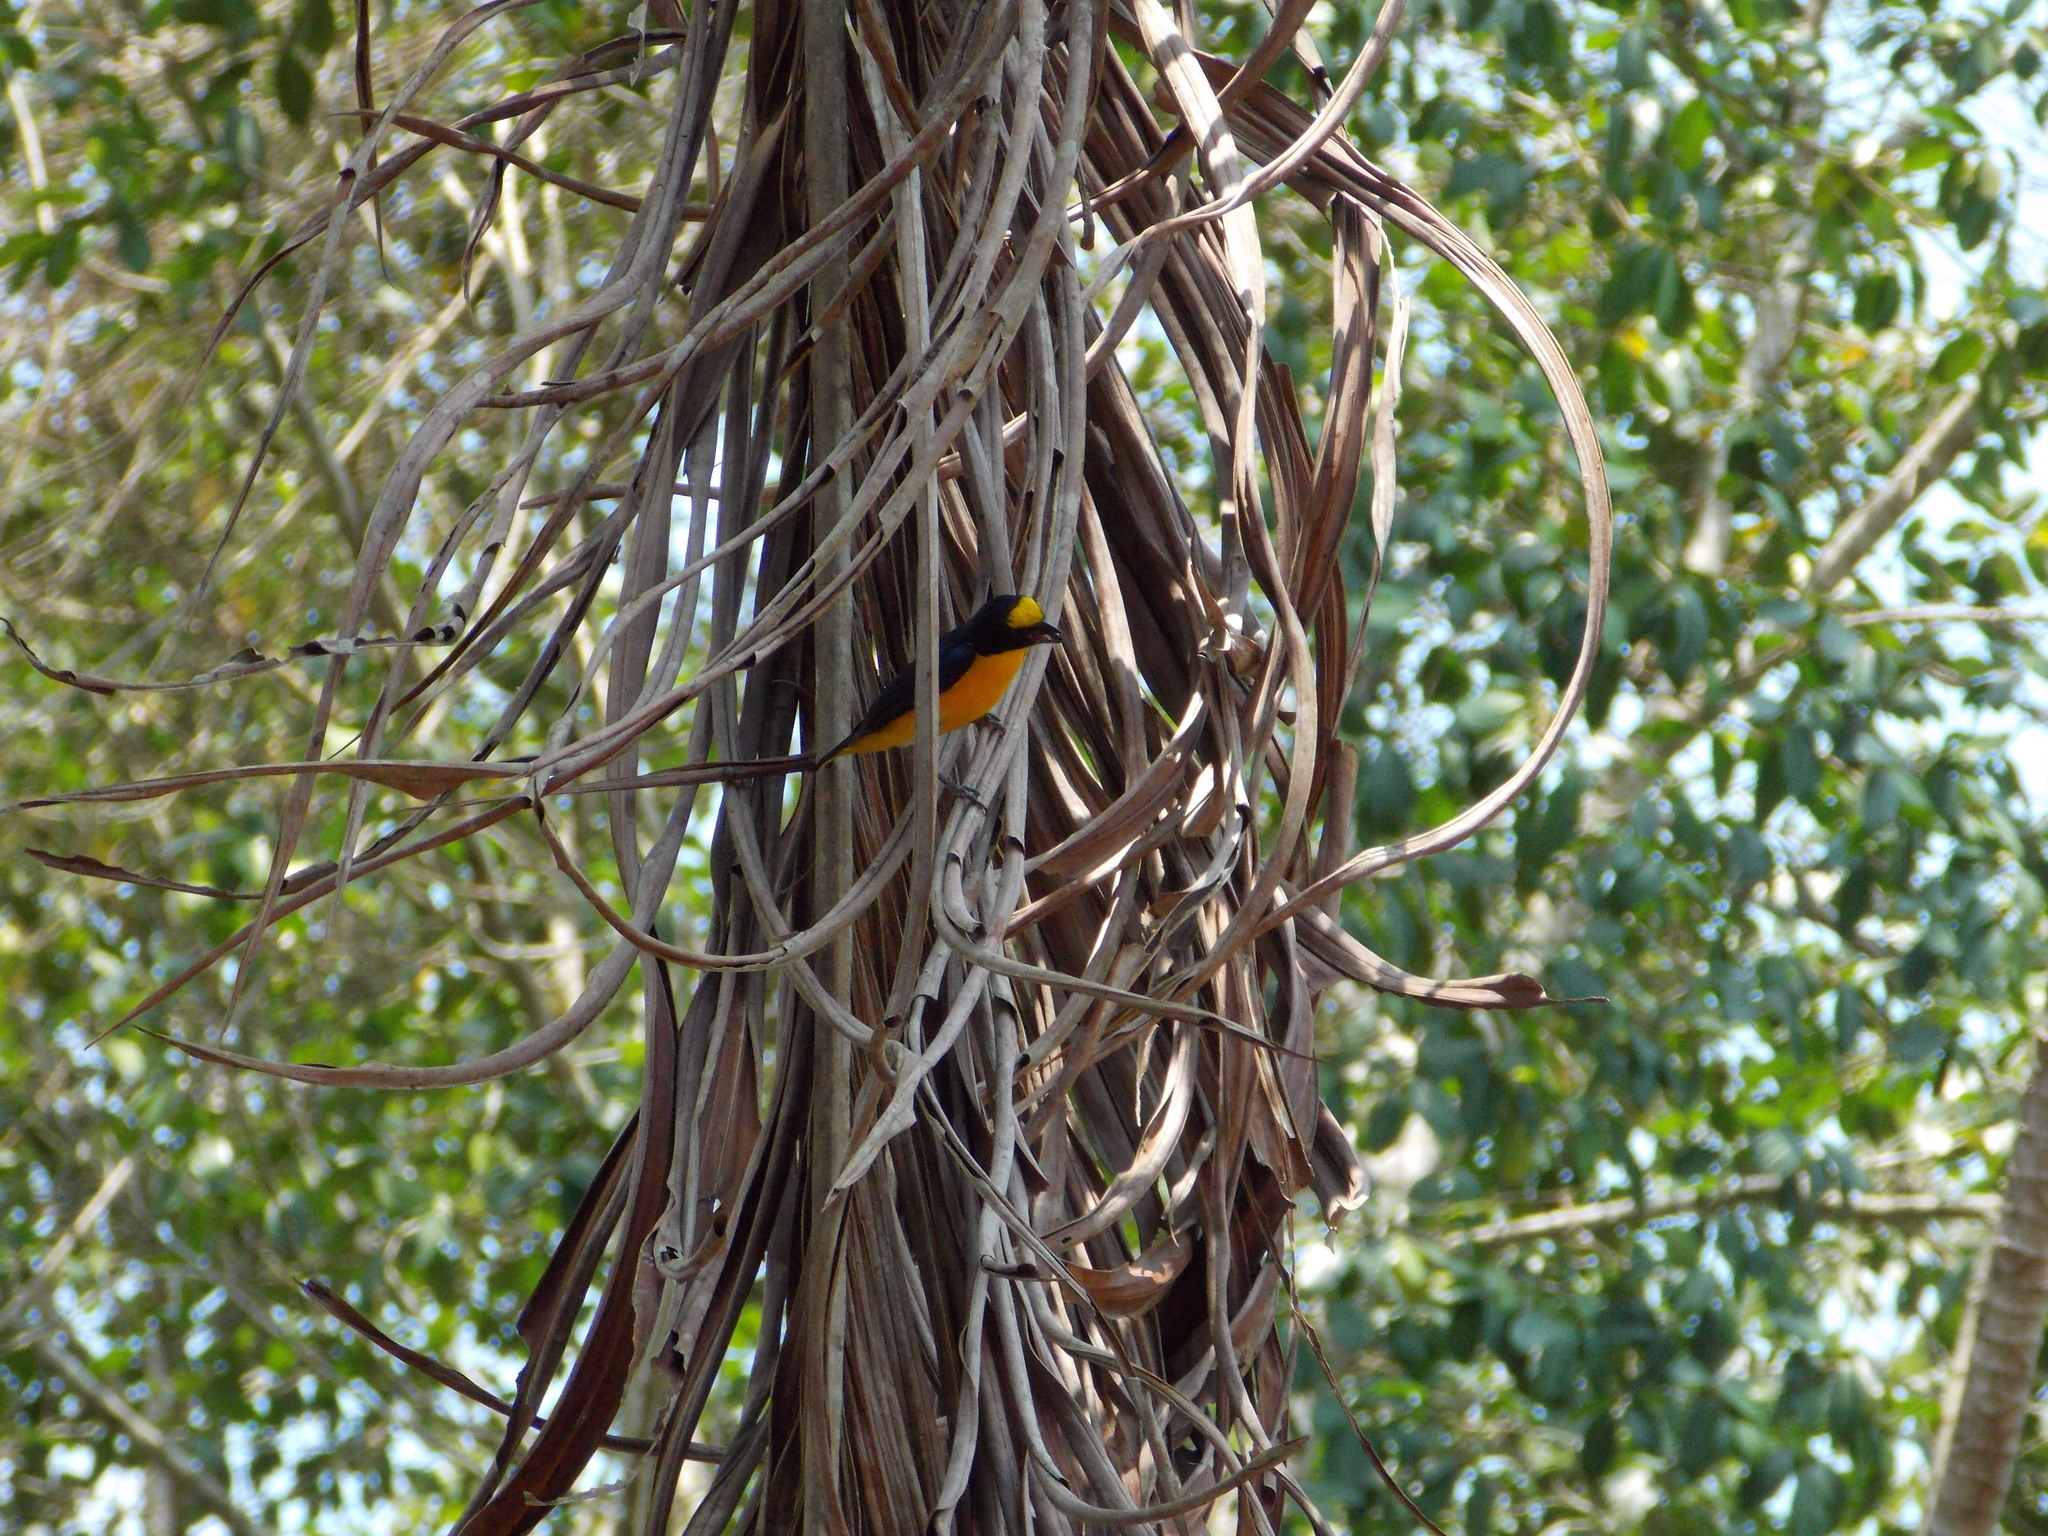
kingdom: Animalia
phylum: Chordata
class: Aves
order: Passeriformes
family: Fringillidae
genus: Euphonia
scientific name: Euphonia hirundinacea
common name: Yellow-throated euphonia
